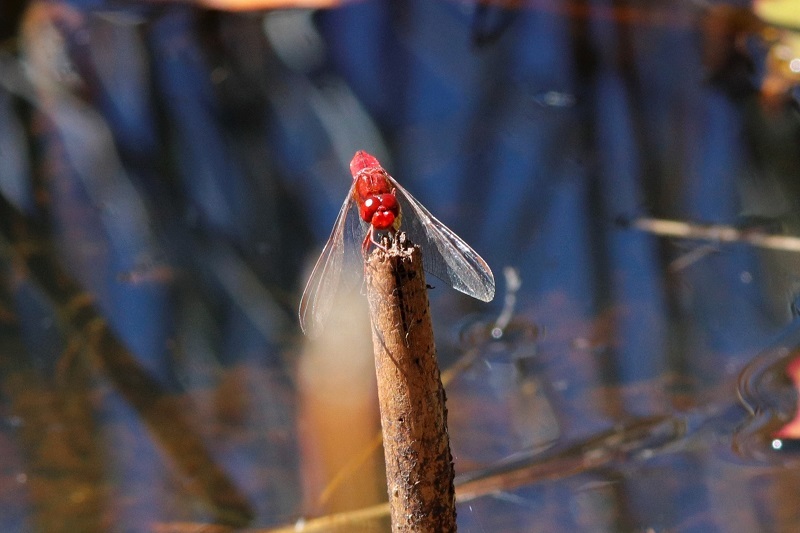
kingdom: Animalia
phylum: Arthropoda
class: Insecta
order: Odonata
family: Libellulidae
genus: Crocothemis
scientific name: Crocothemis erythraea
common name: Scarlet dragonfly
